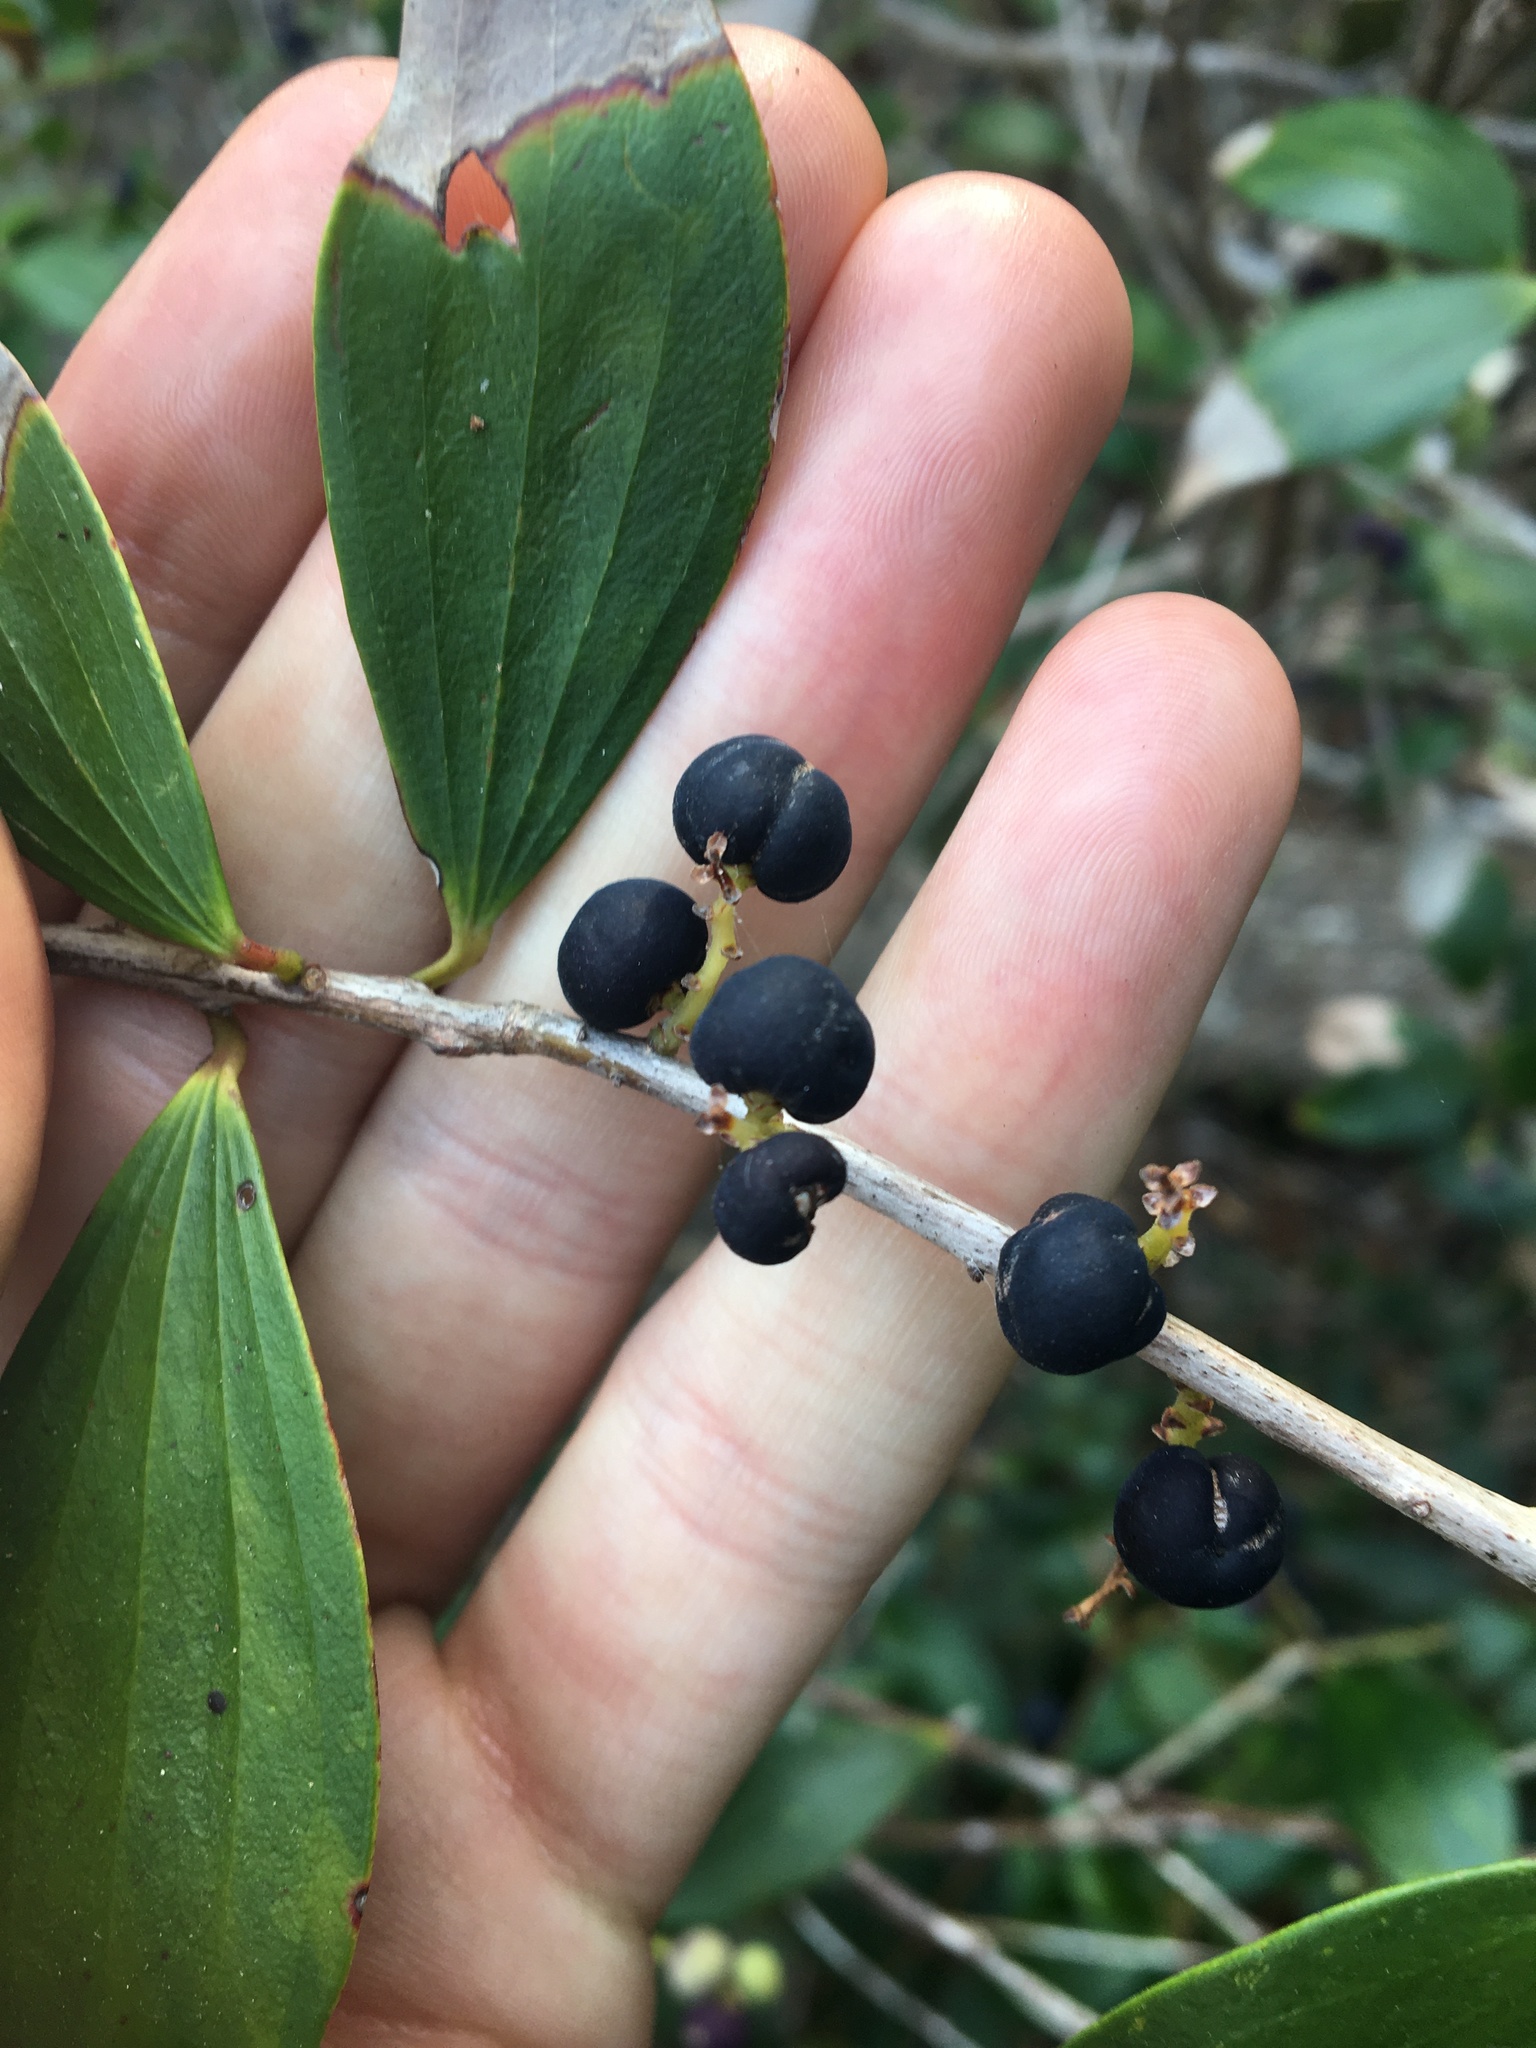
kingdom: Plantae
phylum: Tracheophyta
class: Magnoliopsida
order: Ericales
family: Ericaceae
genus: Trochocarpa
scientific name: Trochocarpa laurina
